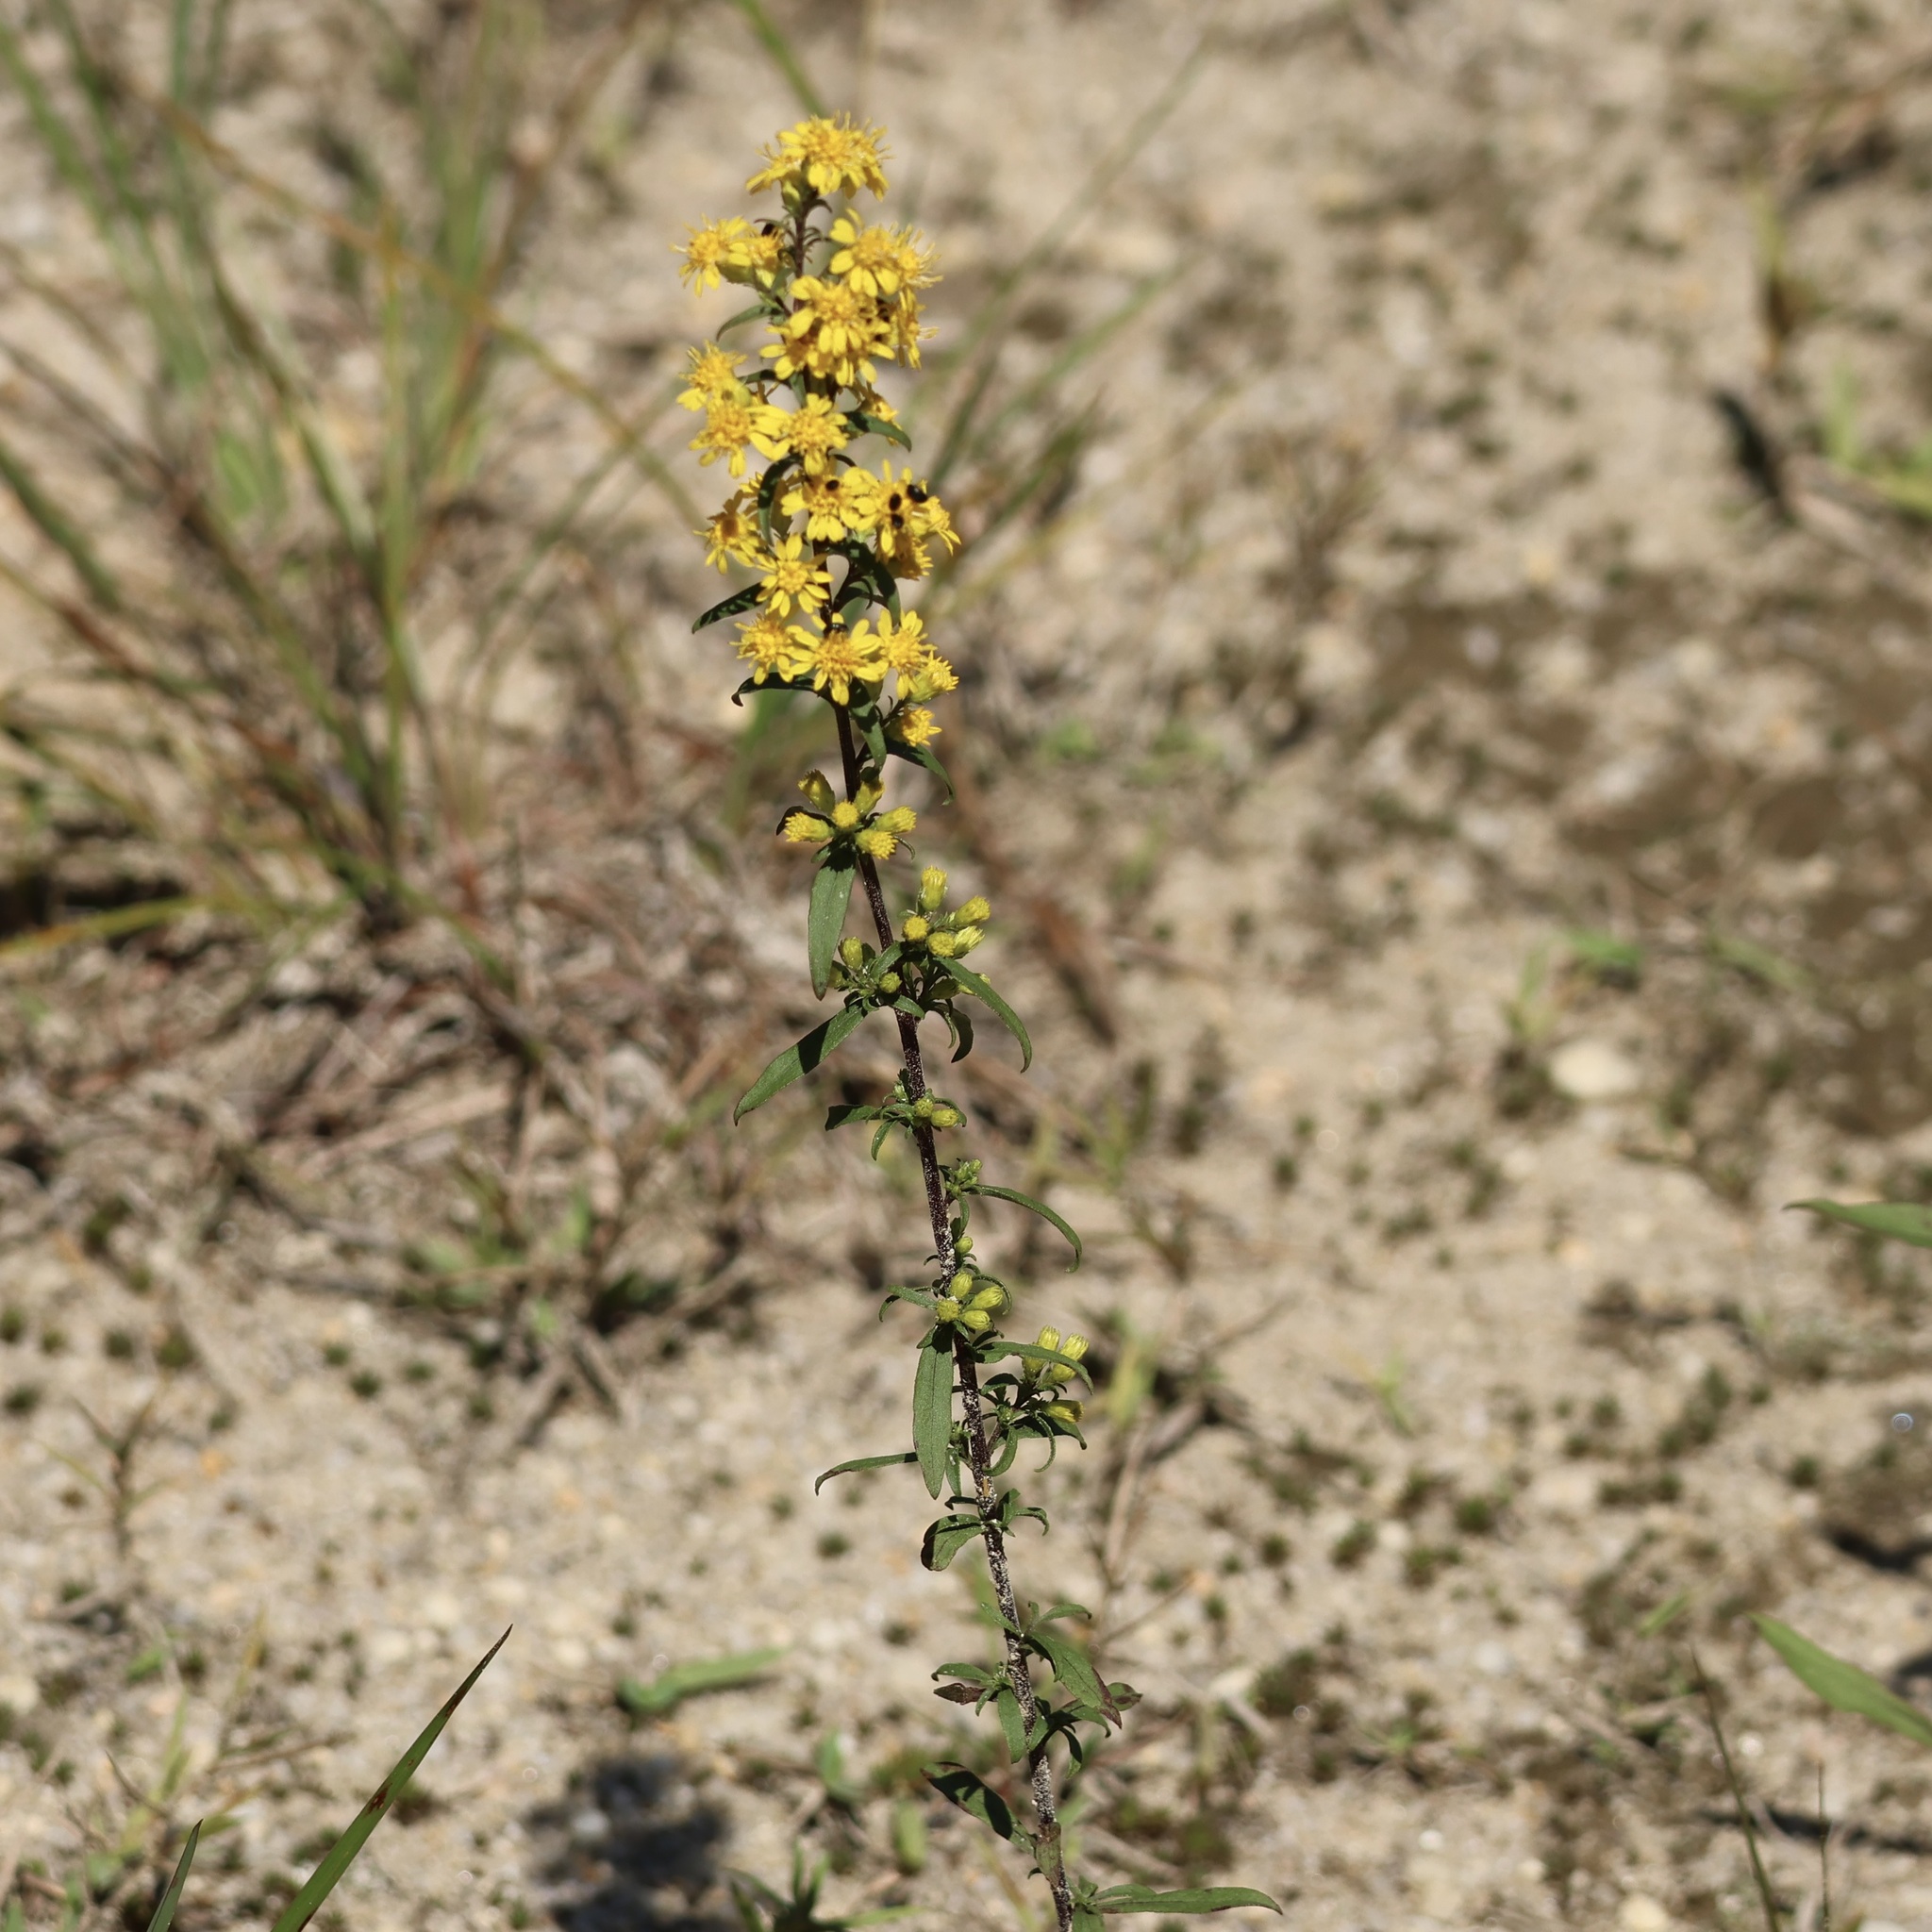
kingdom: Plantae
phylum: Tracheophyta
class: Magnoliopsida
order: Asterales
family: Asteraceae
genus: Solidago
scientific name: Solidago erecta
